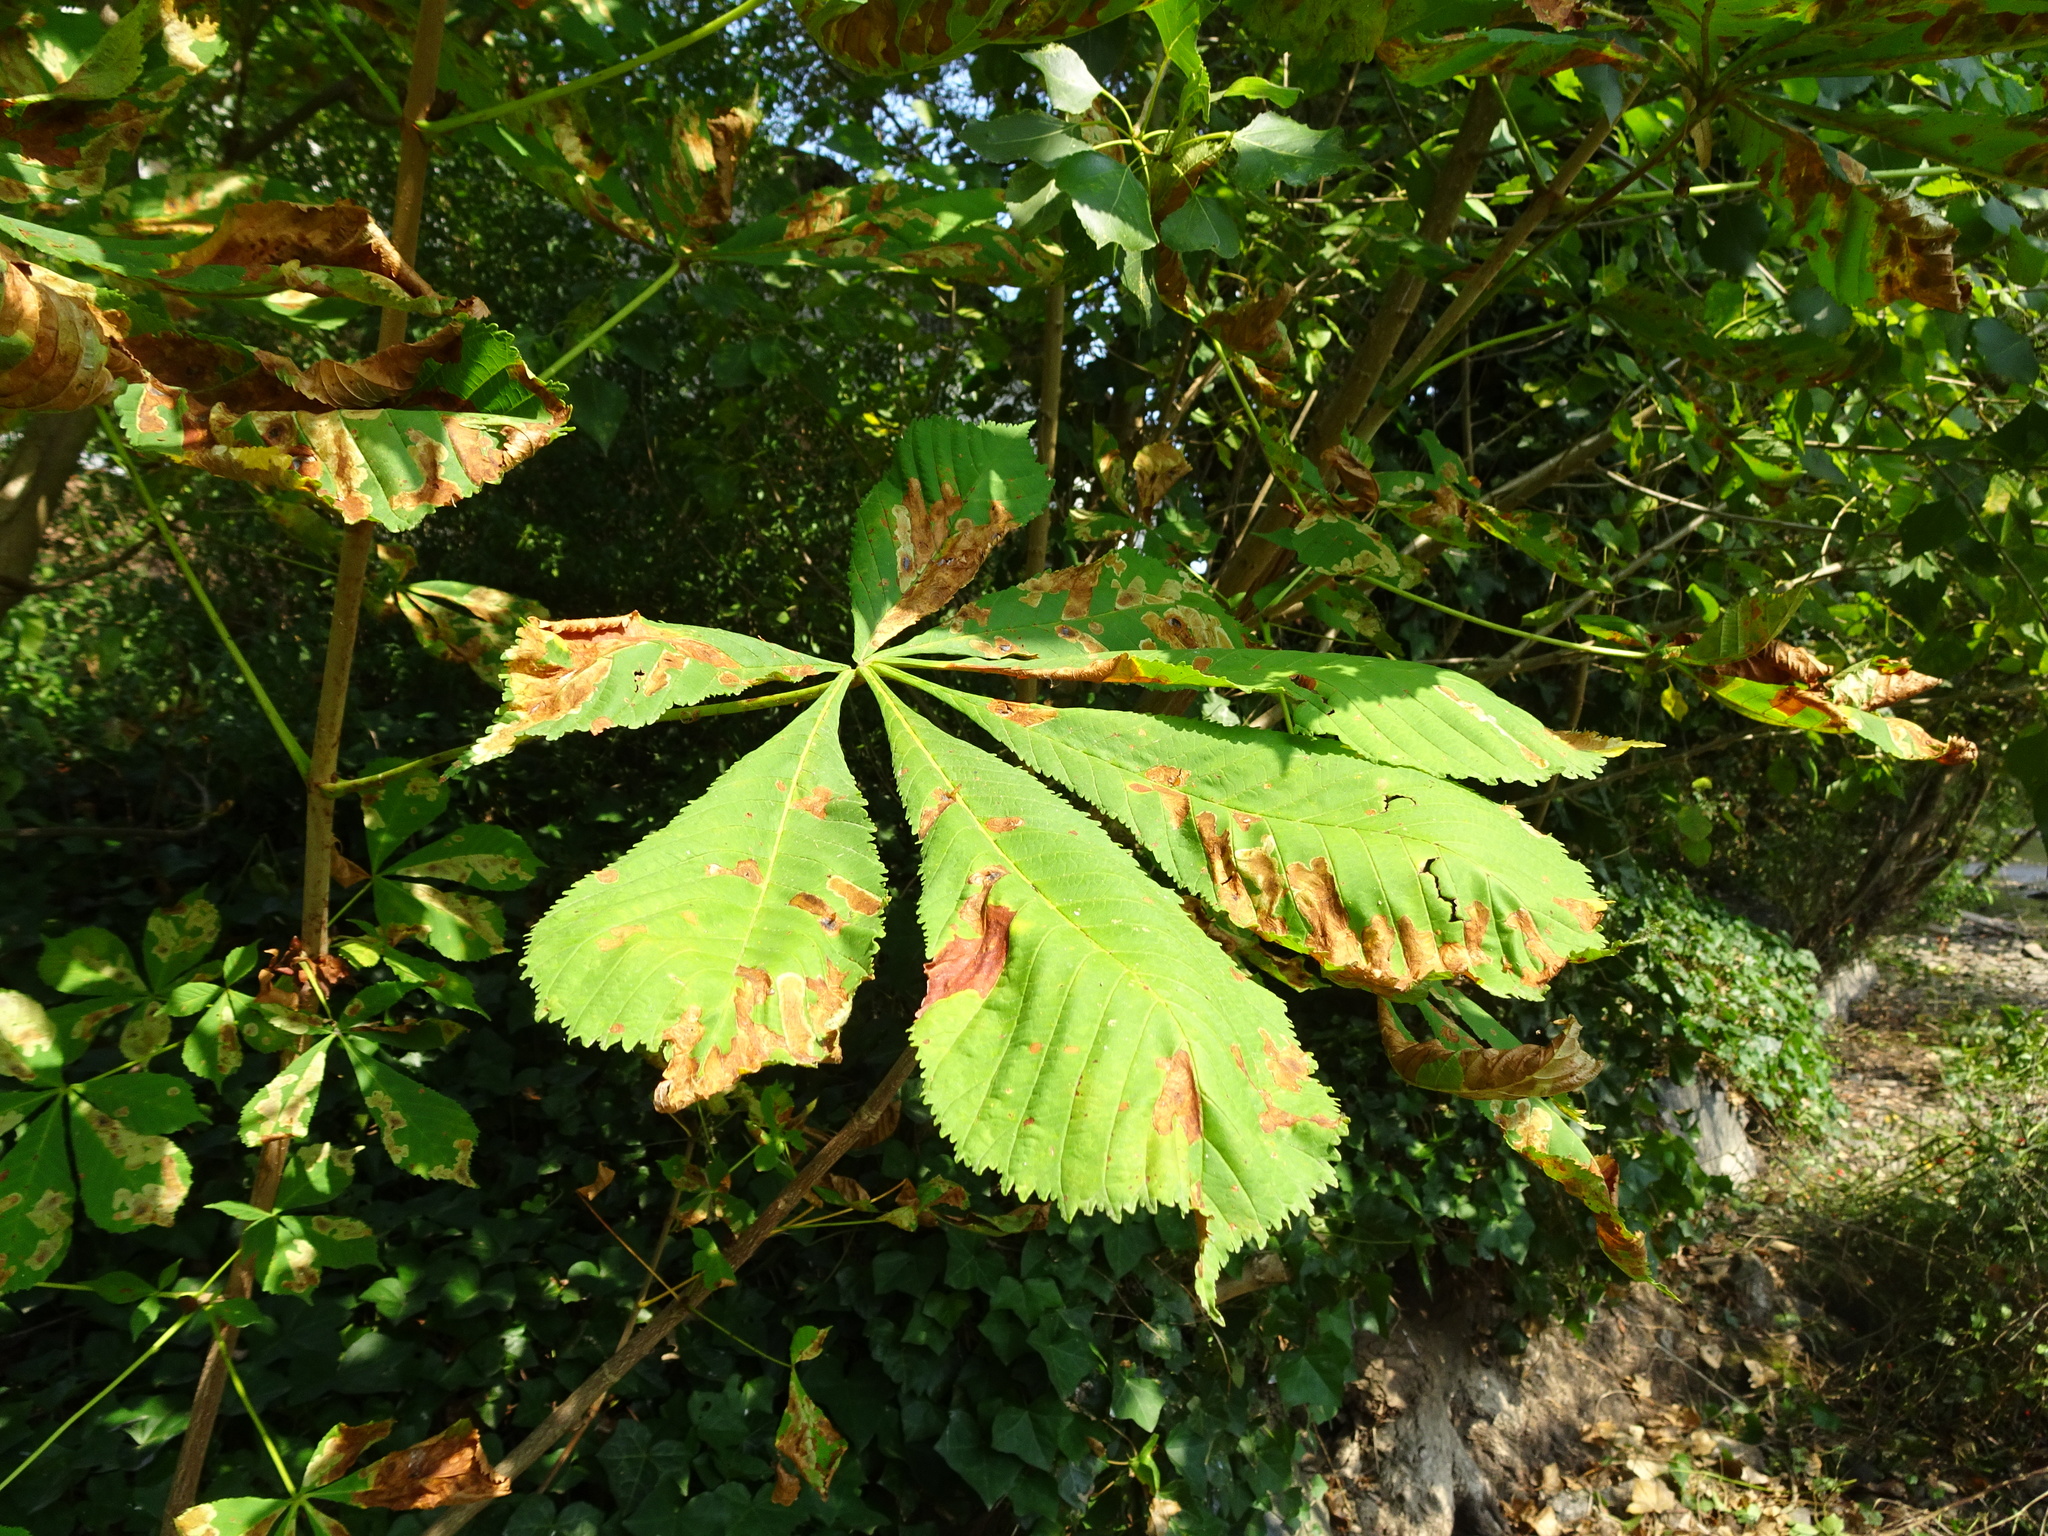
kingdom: Plantae
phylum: Tracheophyta
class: Magnoliopsida
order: Sapindales
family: Sapindaceae
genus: Aesculus
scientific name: Aesculus hippocastanum
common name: Horse-chestnut
